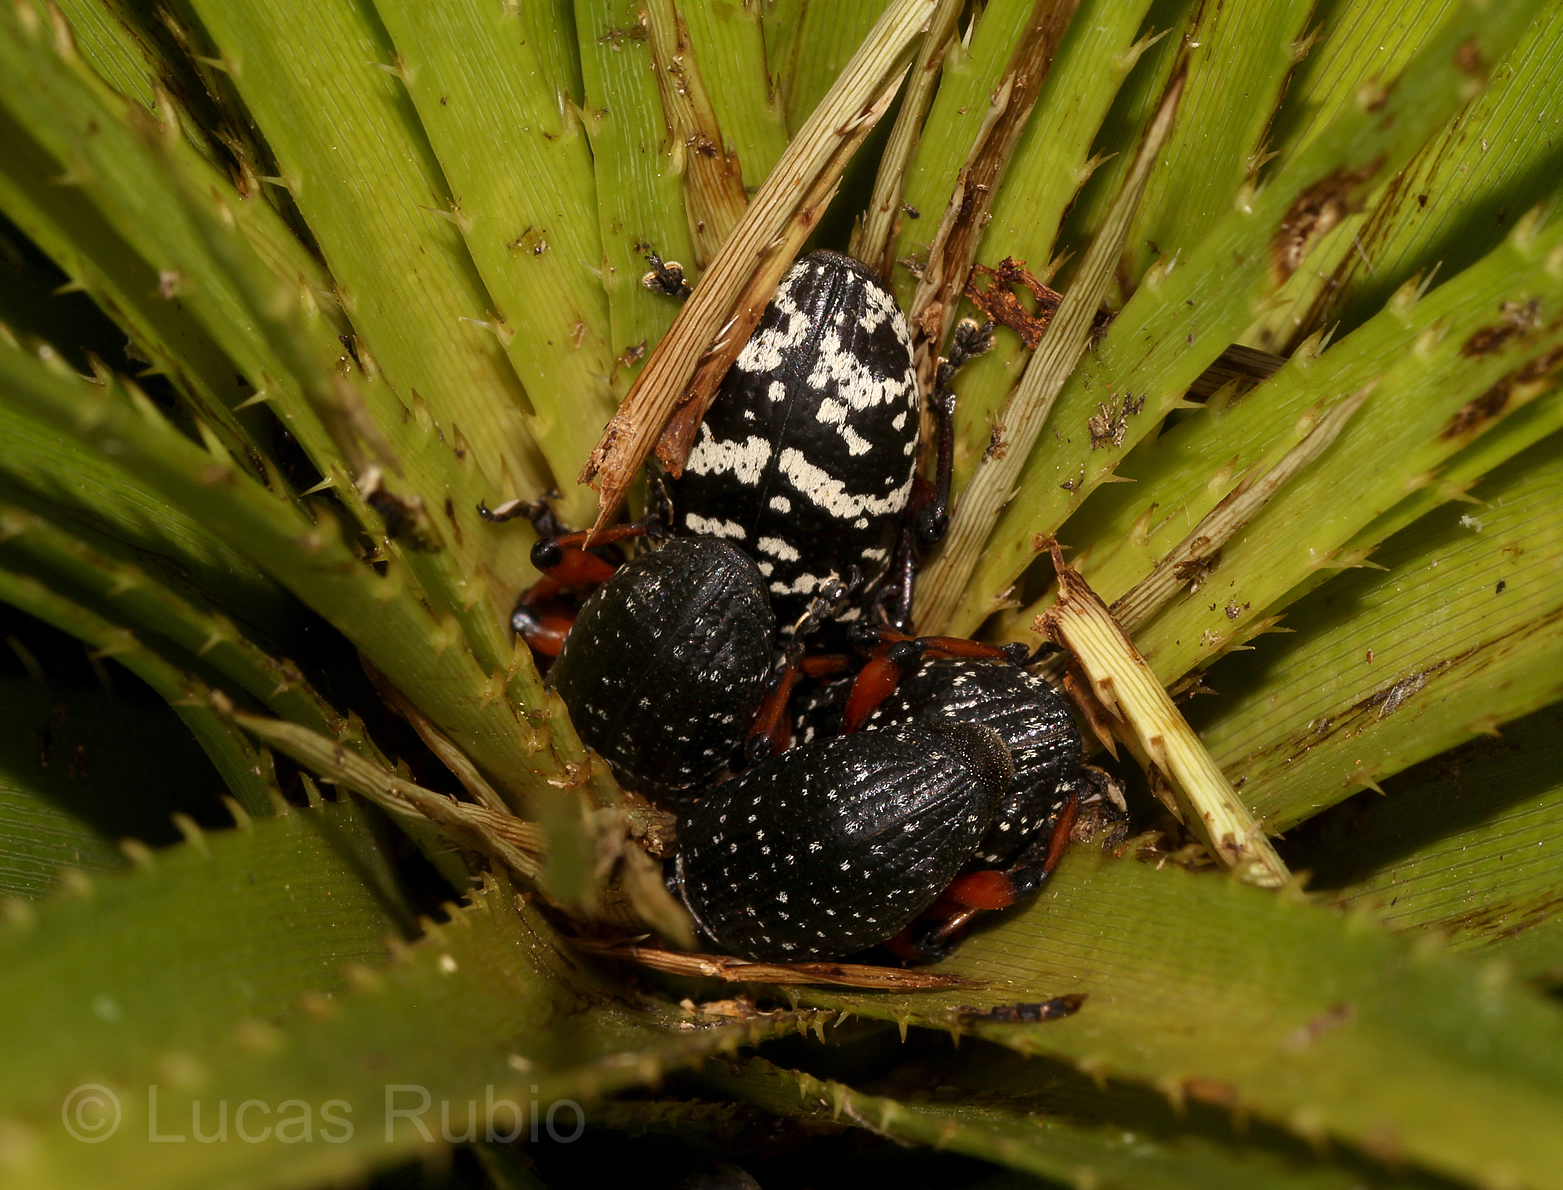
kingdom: Animalia
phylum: Arthropoda
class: Insecta
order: Coleoptera
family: Curculionidae
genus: Heilipodus
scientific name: Heilipodus erythropus
